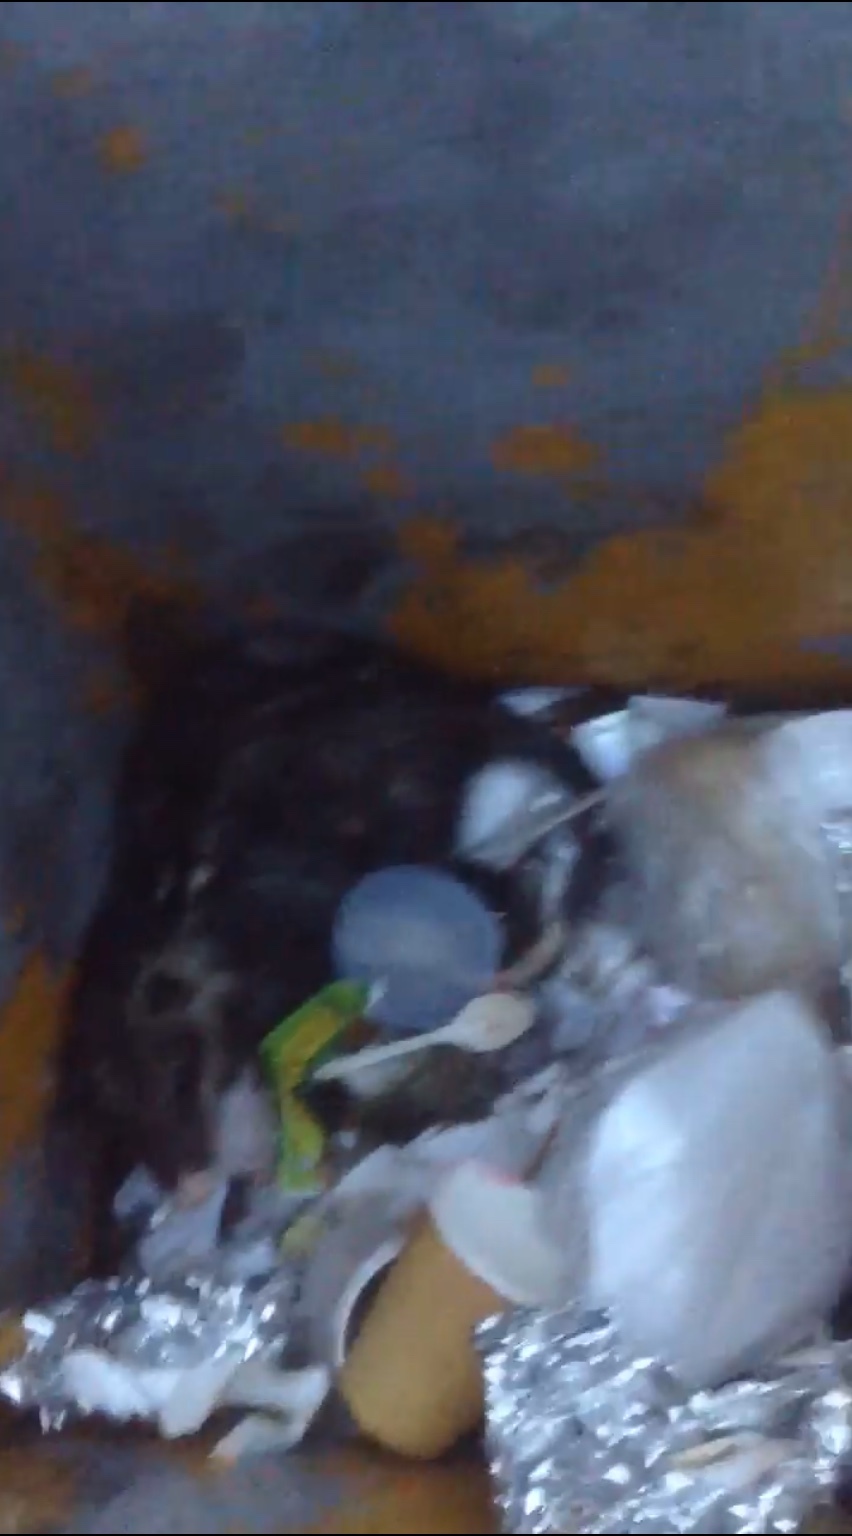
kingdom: Animalia
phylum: Chordata
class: Mammalia
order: Didelphimorphia
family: Didelphidae
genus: Didelphis
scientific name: Didelphis virginiana
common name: Virginia opossum
